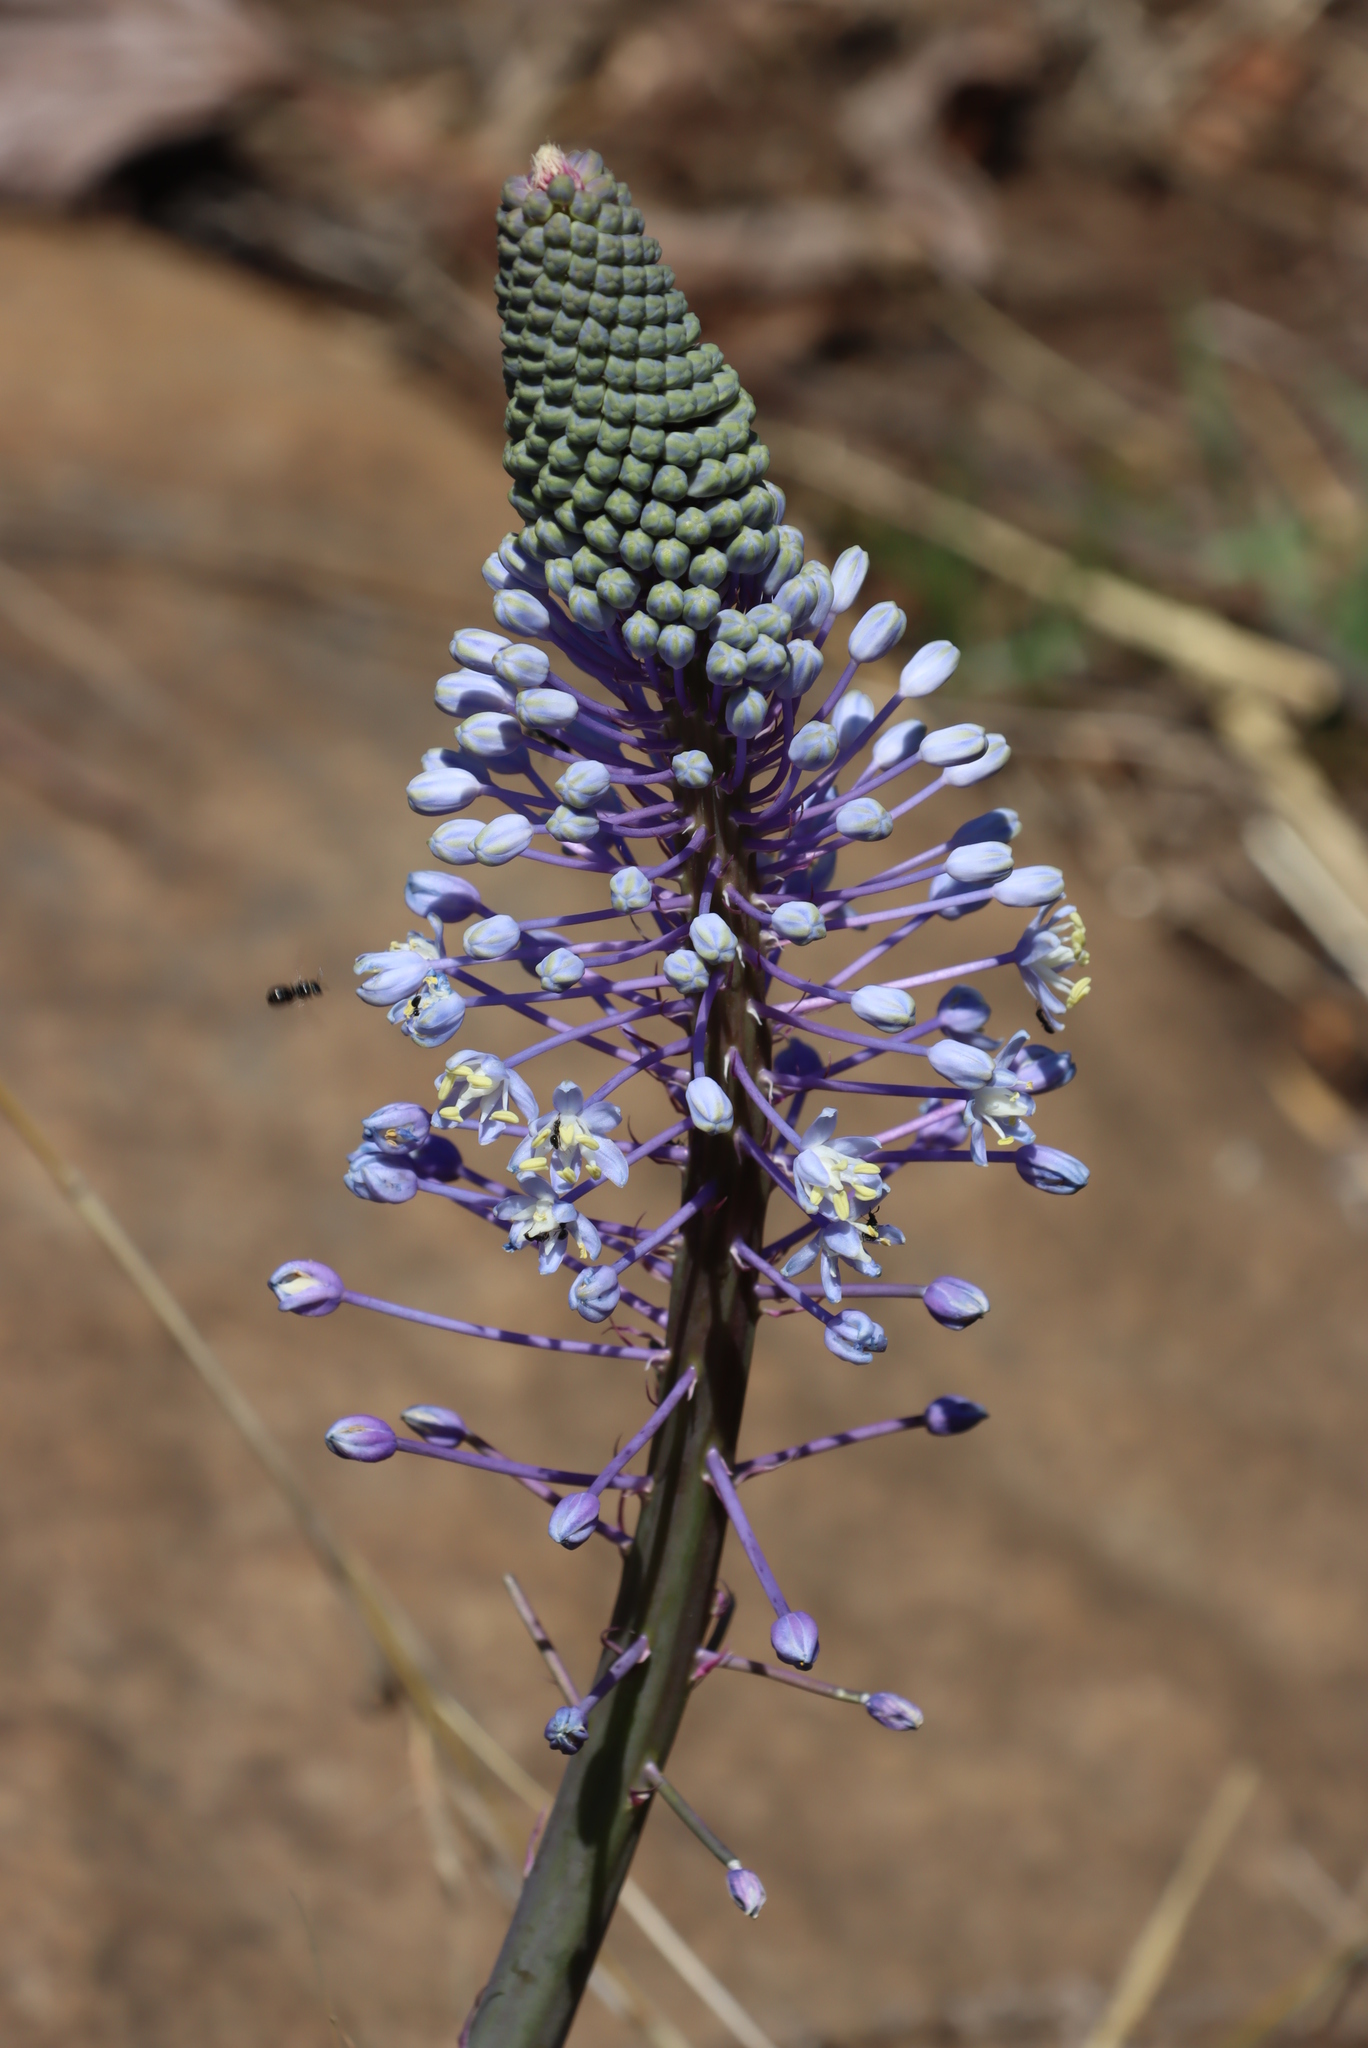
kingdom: Plantae
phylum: Tracheophyta
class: Liliopsida
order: Asparagales
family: Asparagaceae
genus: Merwilla
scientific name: Merwilla plumbea
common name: Blue-squill
